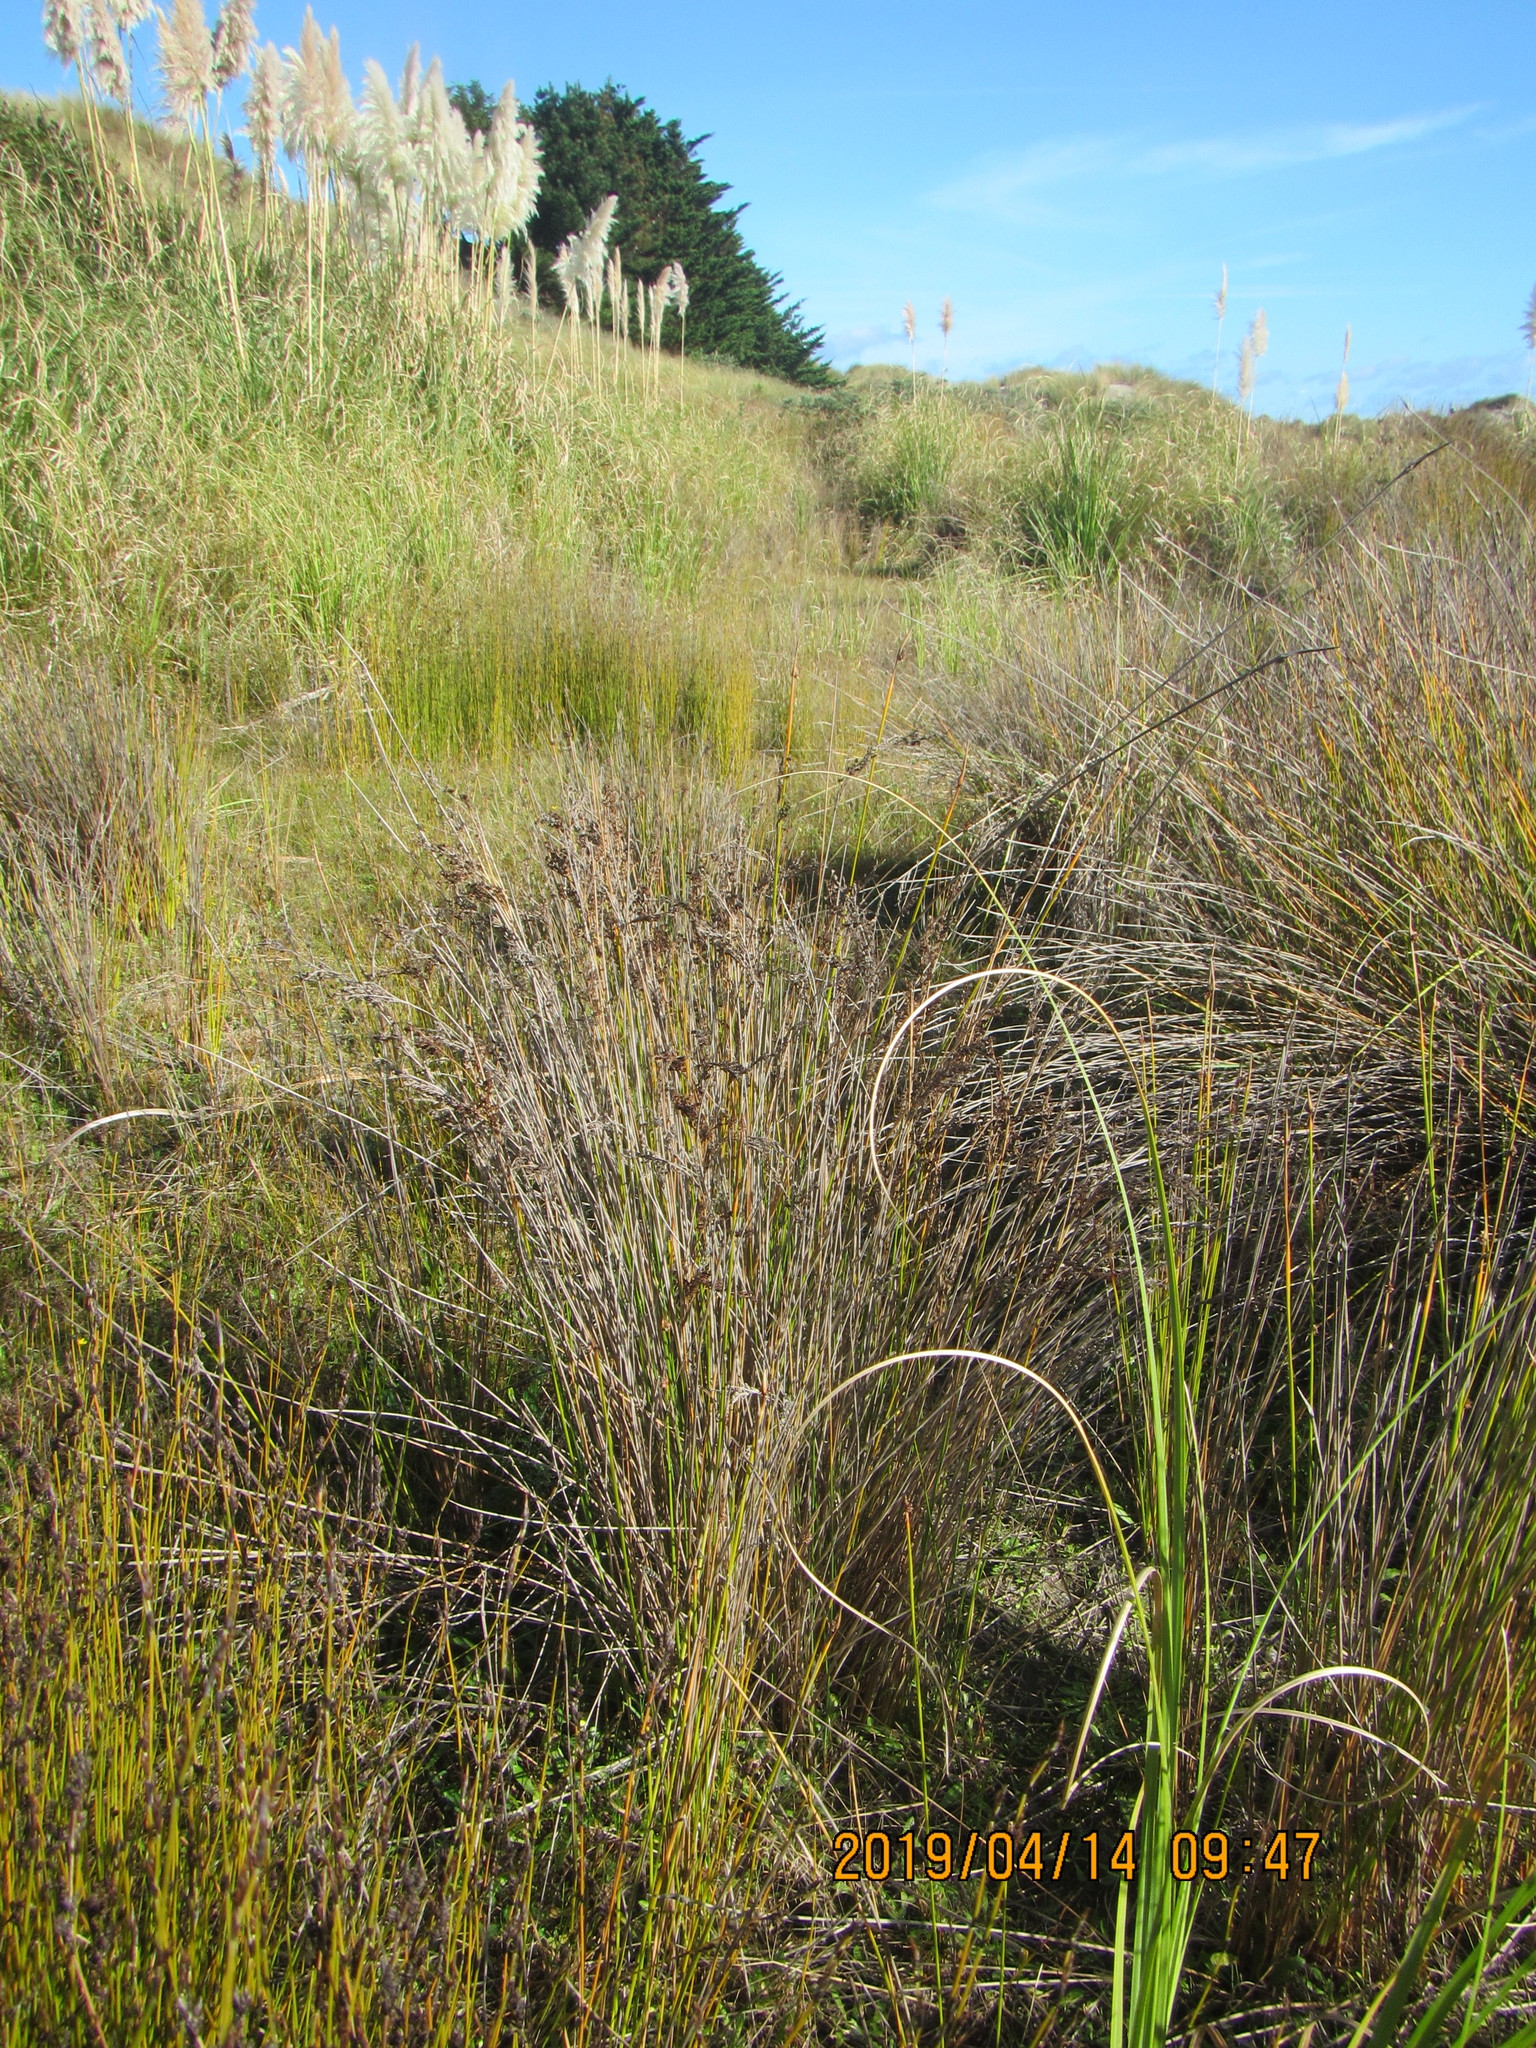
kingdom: Plantae
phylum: Tracheophyta
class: Liliopsida
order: Poales
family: Juncaceae
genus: Juncus
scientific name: Juncus kraussii
